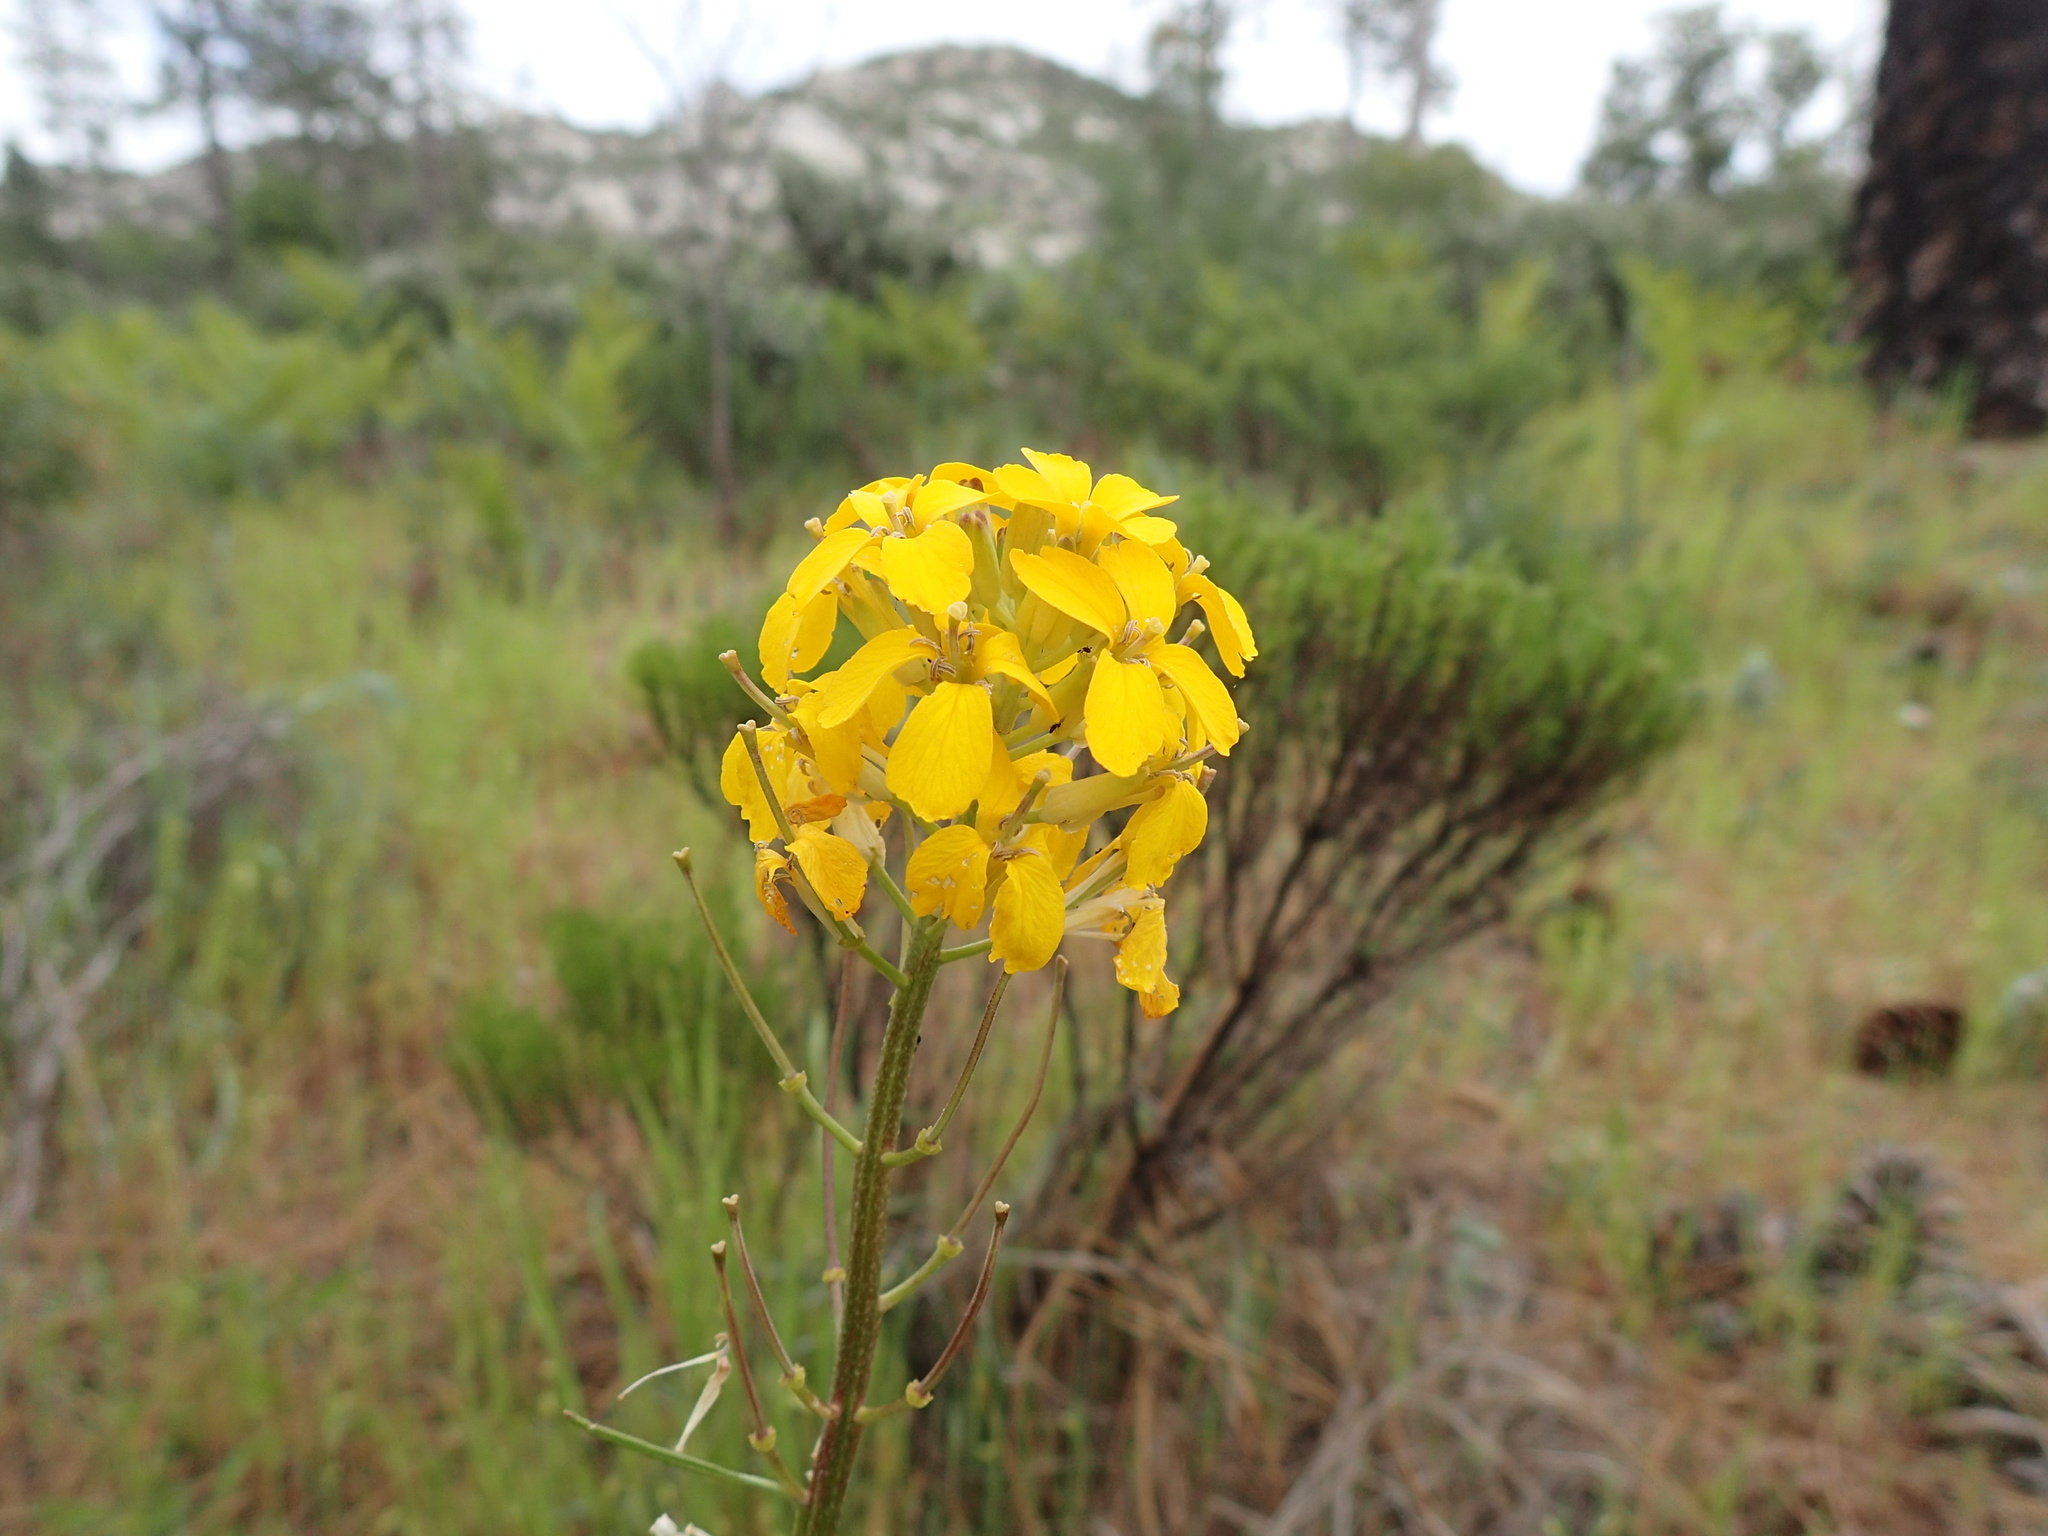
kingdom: Plantae
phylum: Tracheophyta
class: Magnoliopsida
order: Brassicales
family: Brassicaceae
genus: Erysimum
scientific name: Erysimum teretifolium
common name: Ben lomond wallflower
